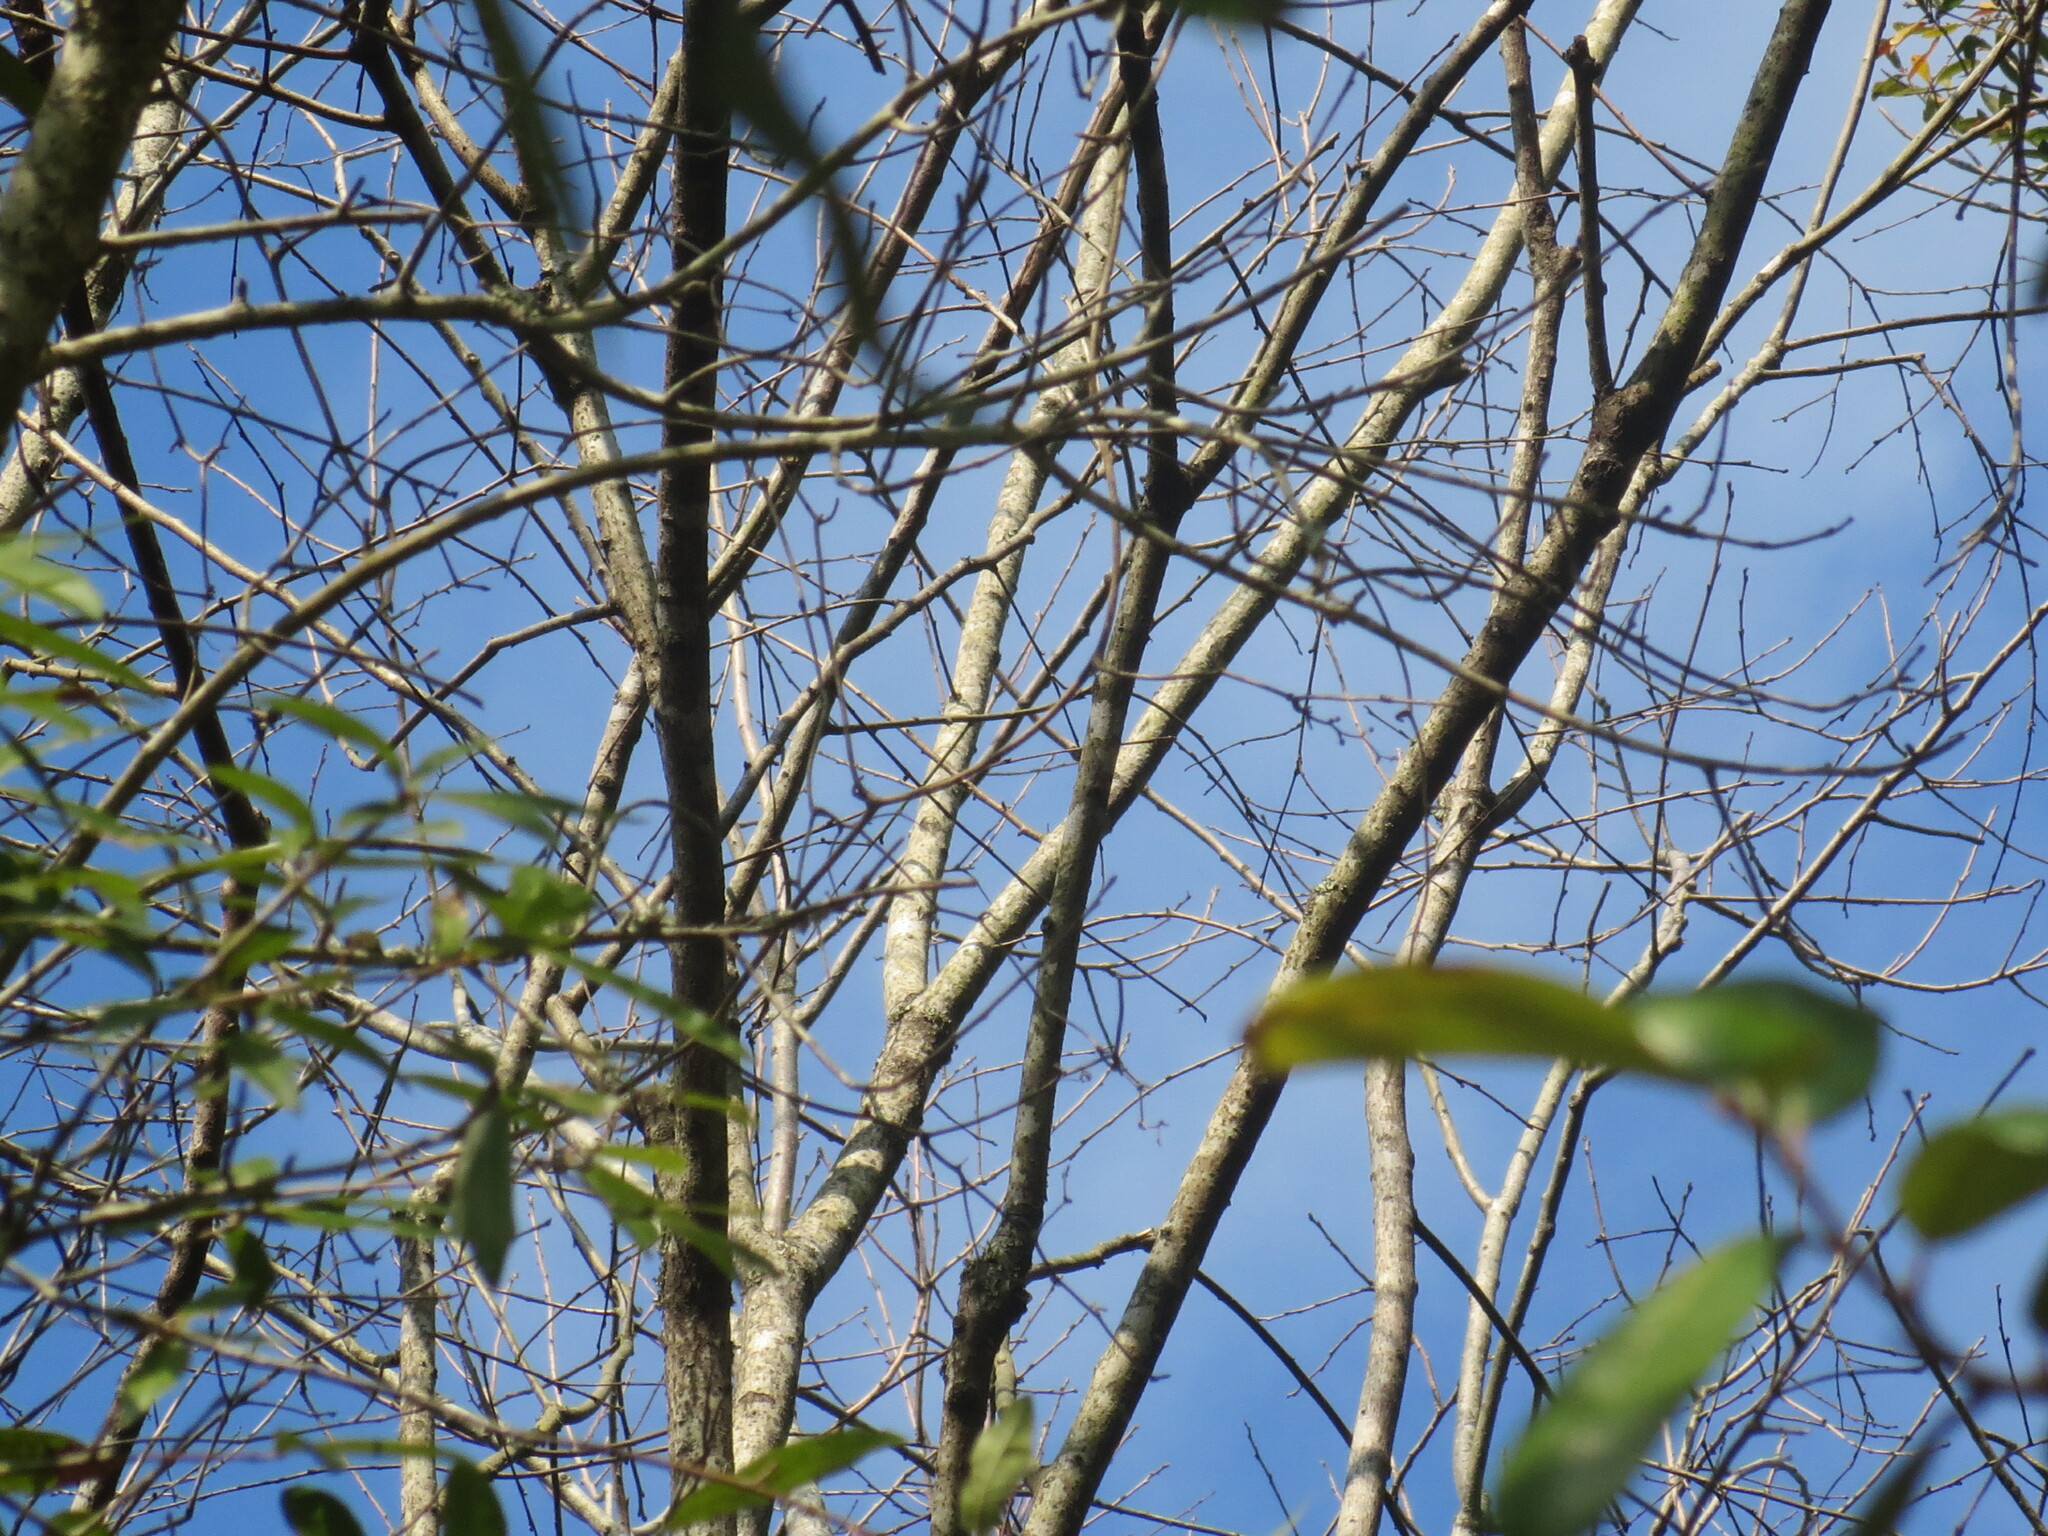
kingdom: Plantae
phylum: Tracheophyta
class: Magnoliopsida
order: Ericales
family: Ebenaceae
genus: Diospyros
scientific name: Diospyros virginiana
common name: Persimmon
